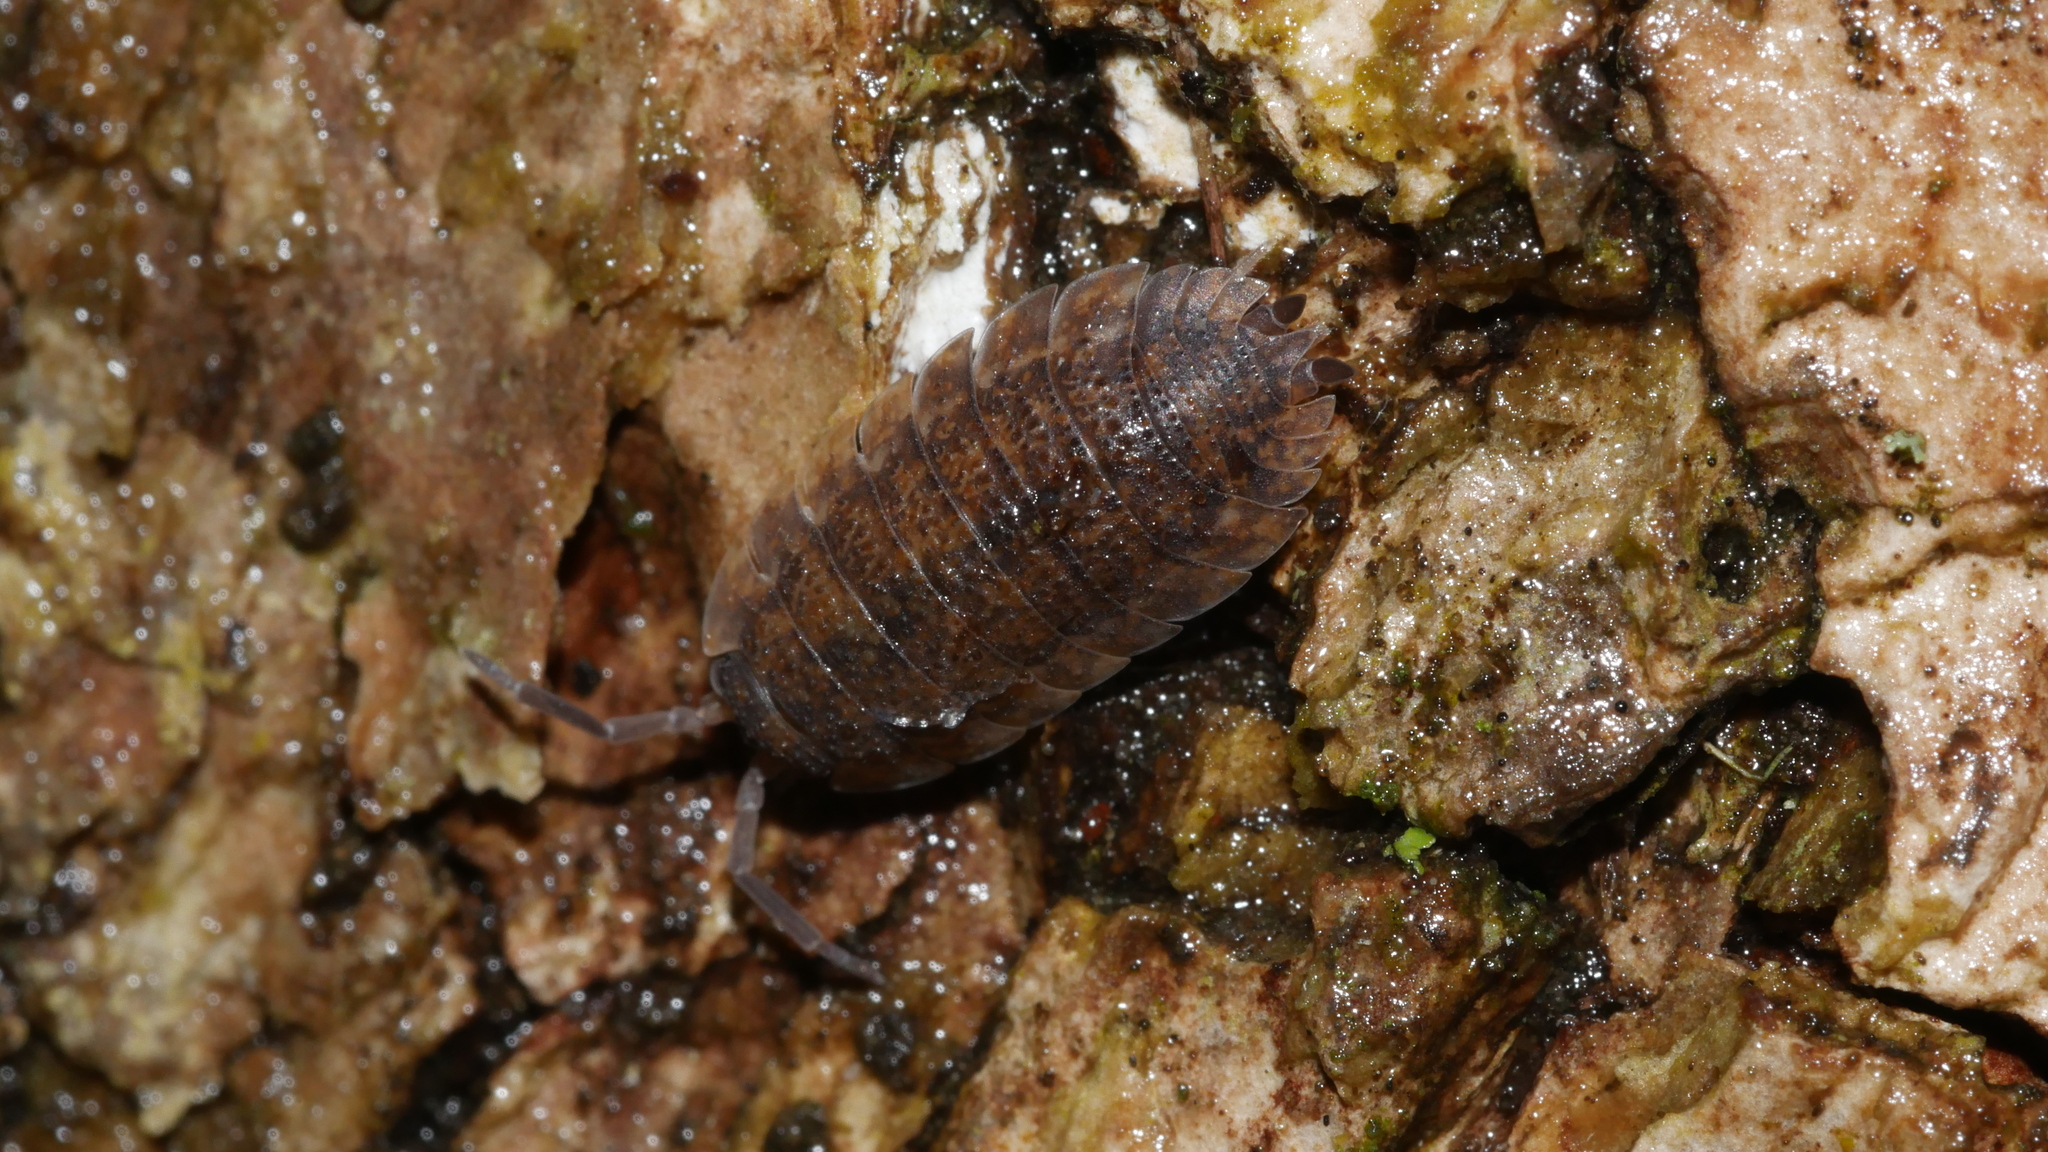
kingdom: Animalia
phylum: Arthropoda
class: Malacostraca
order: Isopoda
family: Porcellionidae
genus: Porcellio
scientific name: Porcellio scaber
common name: Common rough woodlouse
